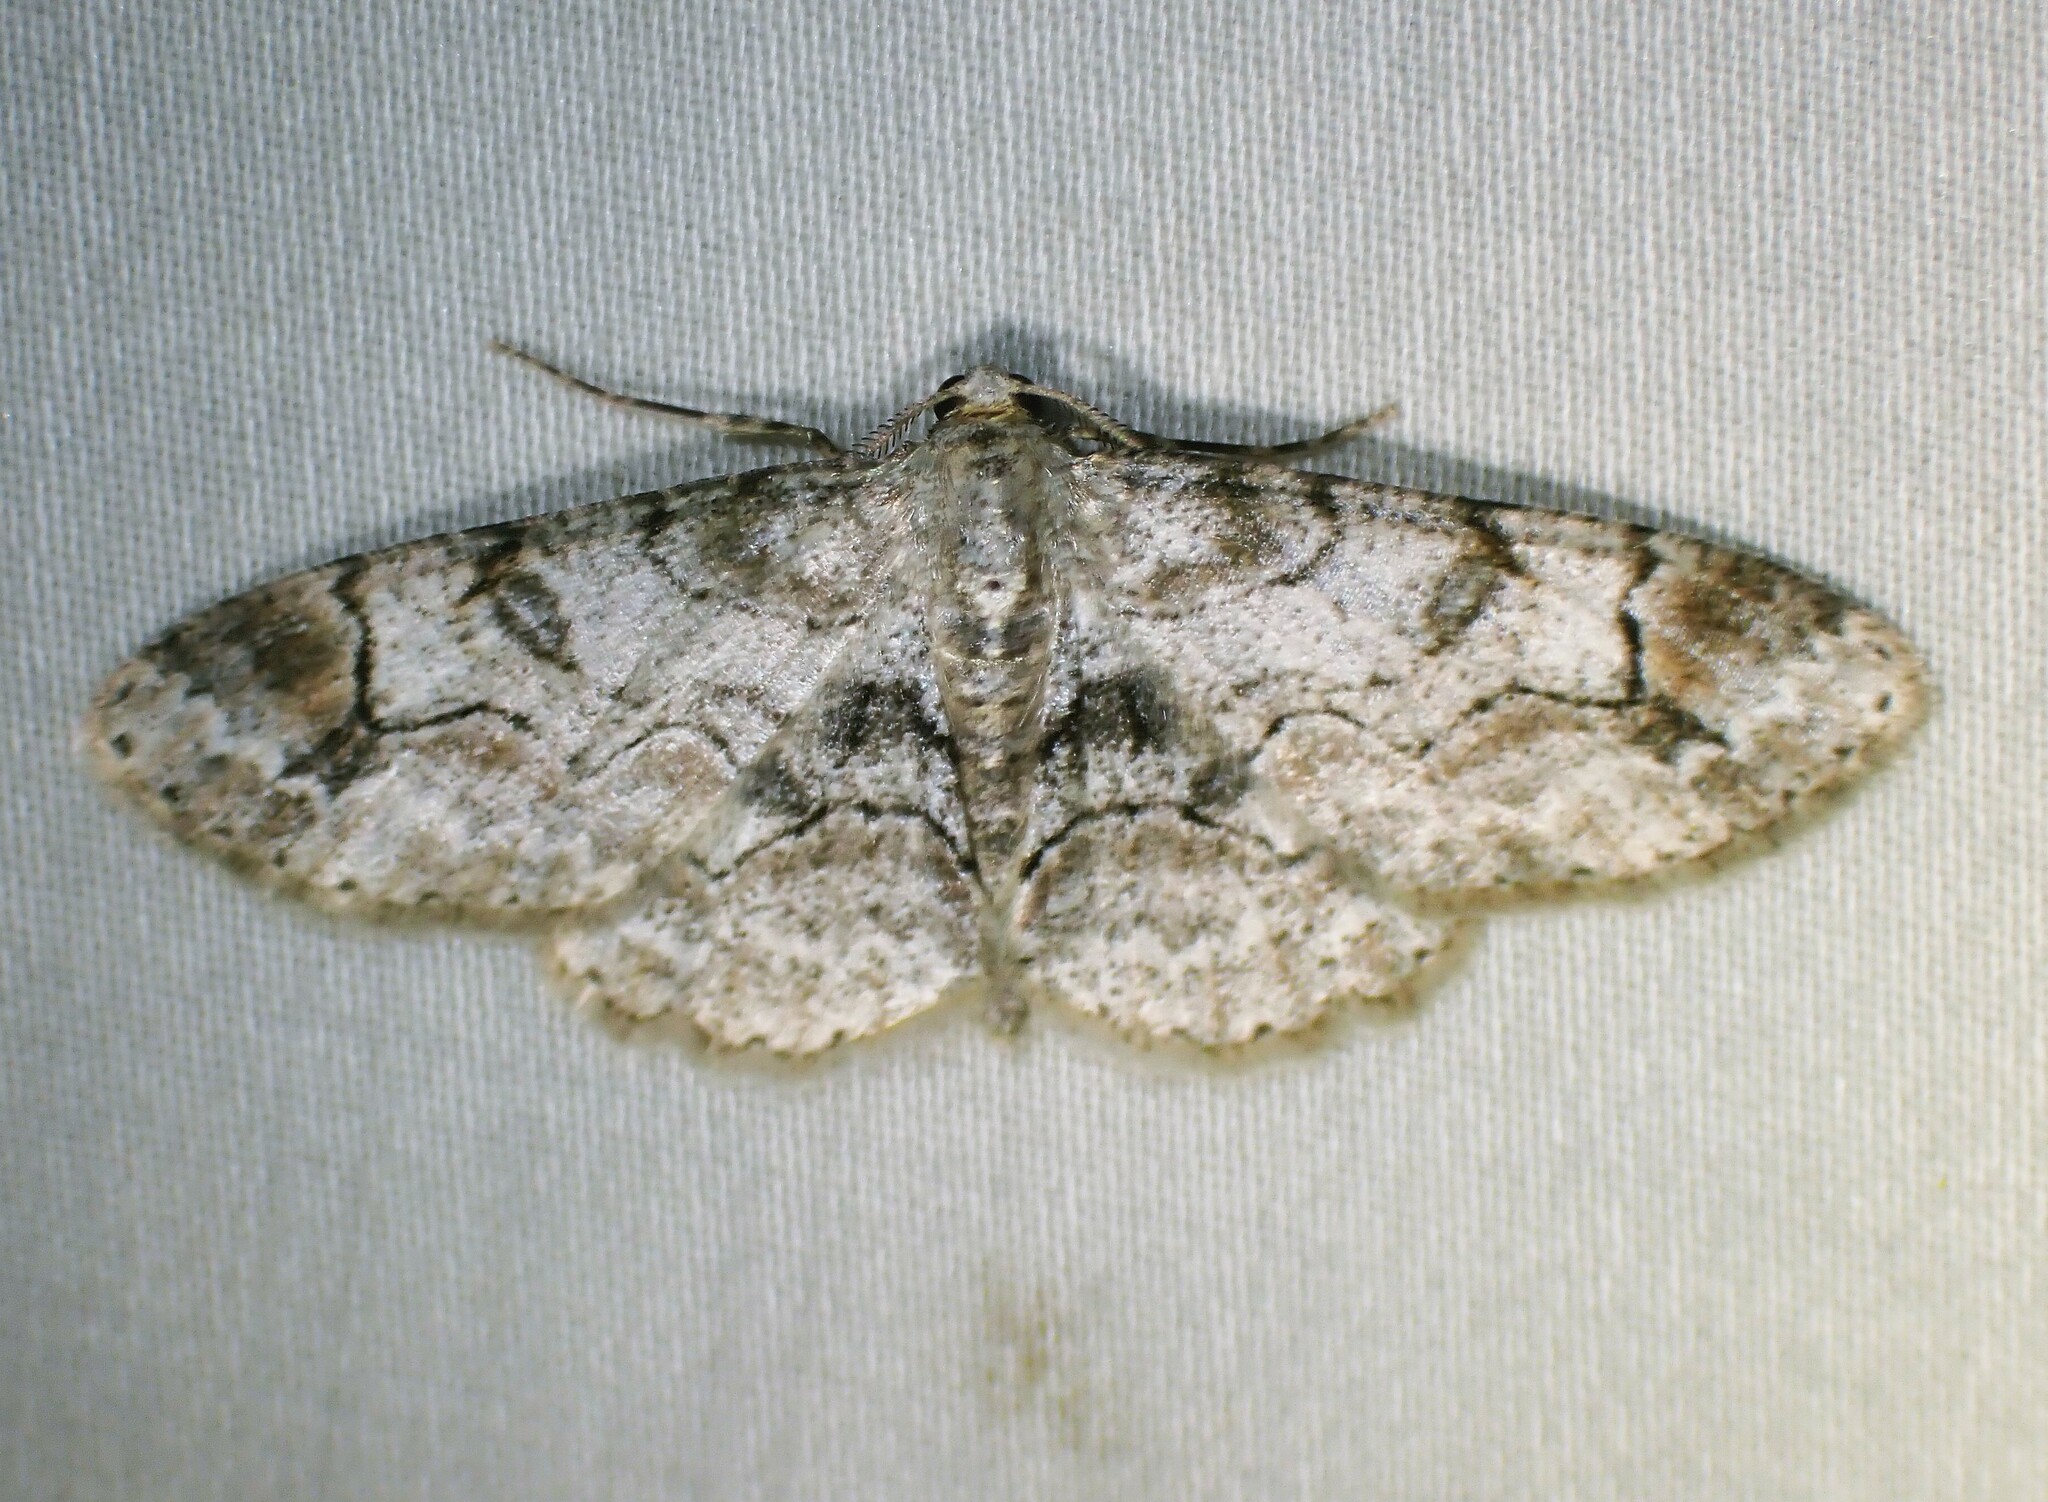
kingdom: Animalia
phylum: Arthropoda
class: Insecta
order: Lepidoptera
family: Geometridae
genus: Iridopsis
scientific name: Iridopsis larvaria
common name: Bent-line gray
